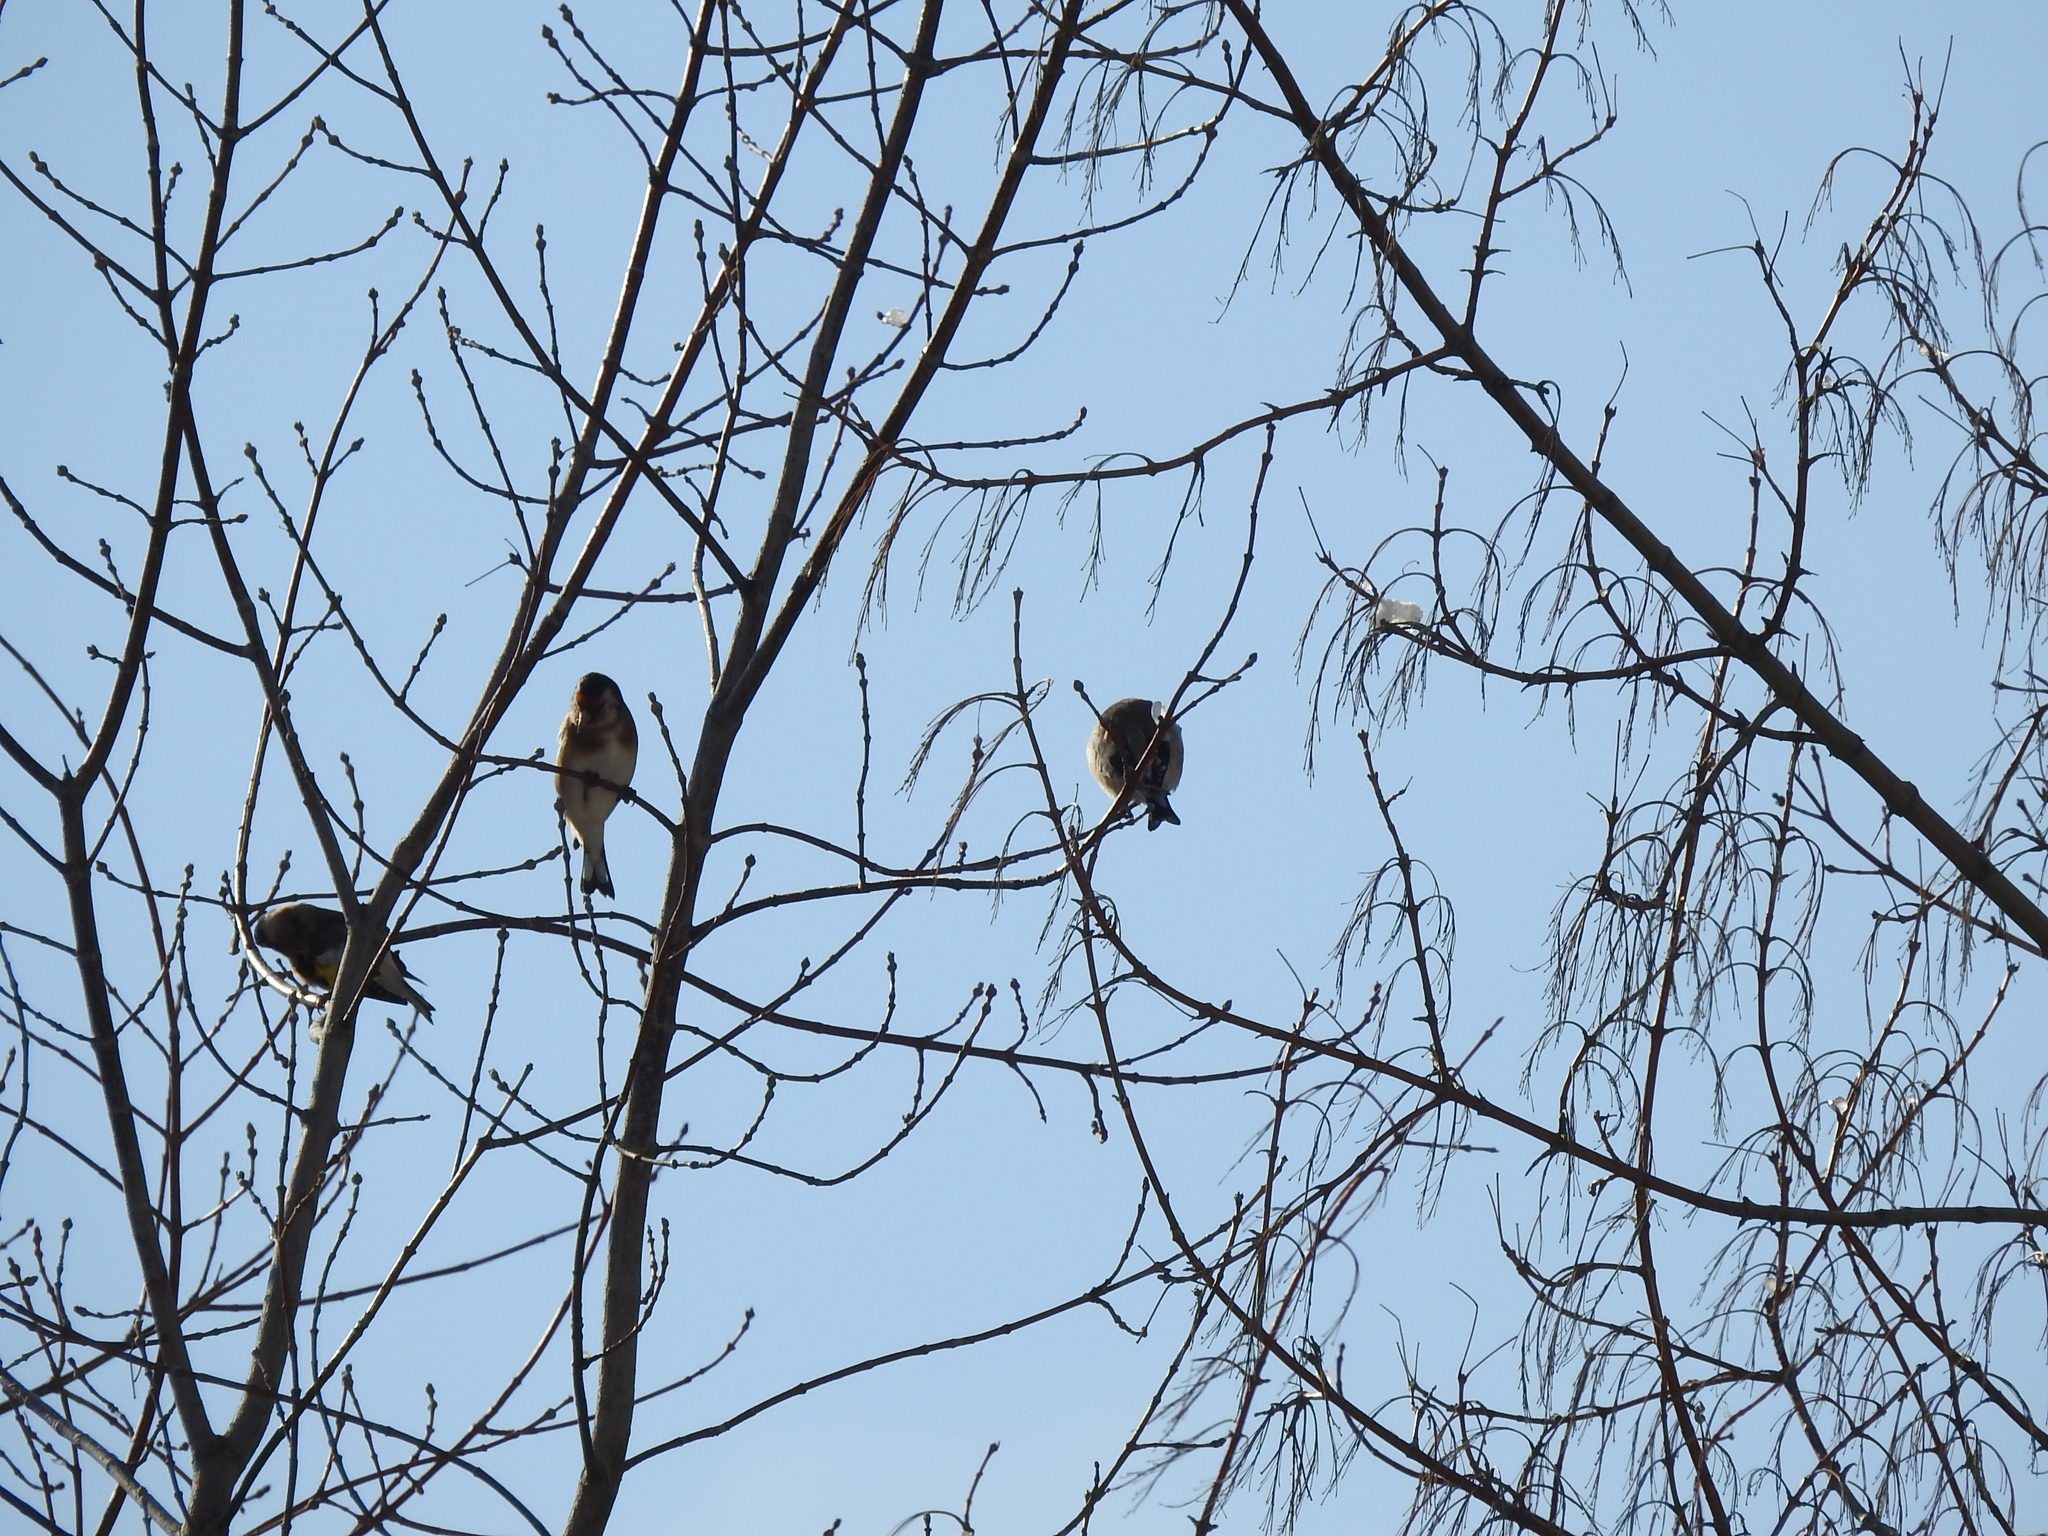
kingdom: Animalia
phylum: Chordata
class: Aves
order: Passeriformes
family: Fringillidae
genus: Carduelis
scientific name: Carduelis carduelis
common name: European goldfinch
